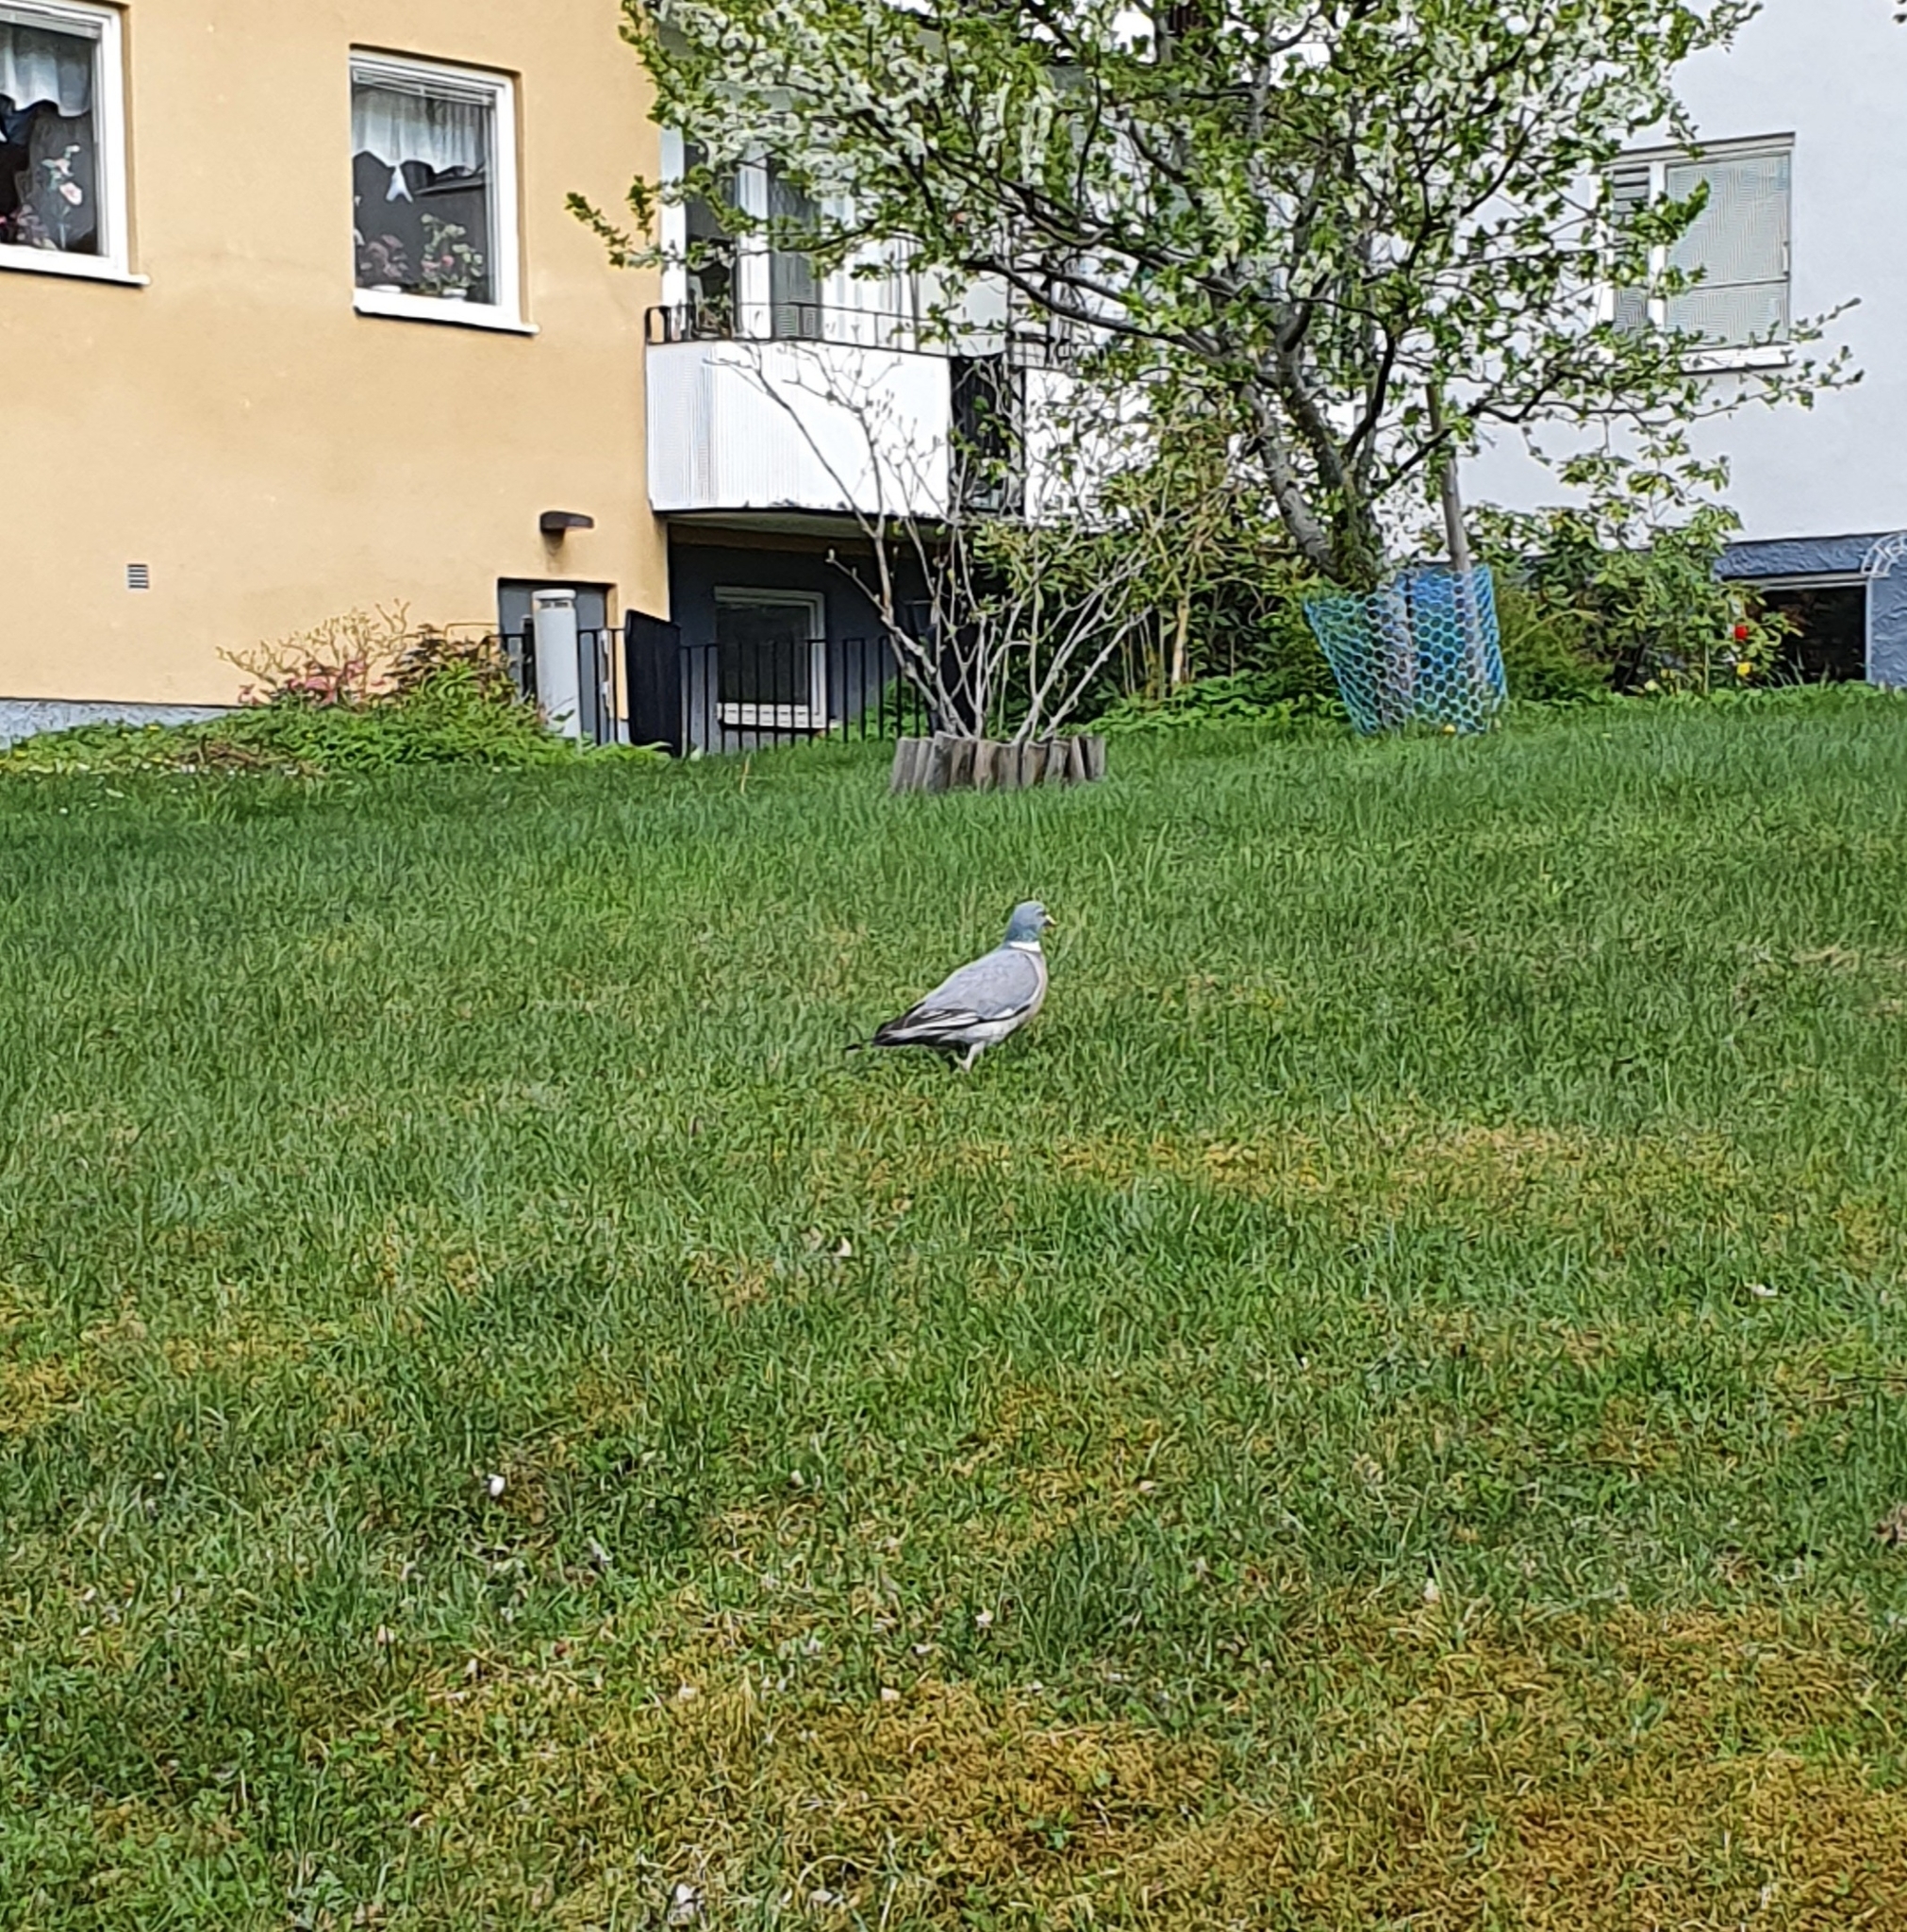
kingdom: Animalia
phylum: Chordata
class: Aves
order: Columbiformes
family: Columbidae
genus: Columba
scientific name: Columba palumbus
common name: Common wood pigeon
